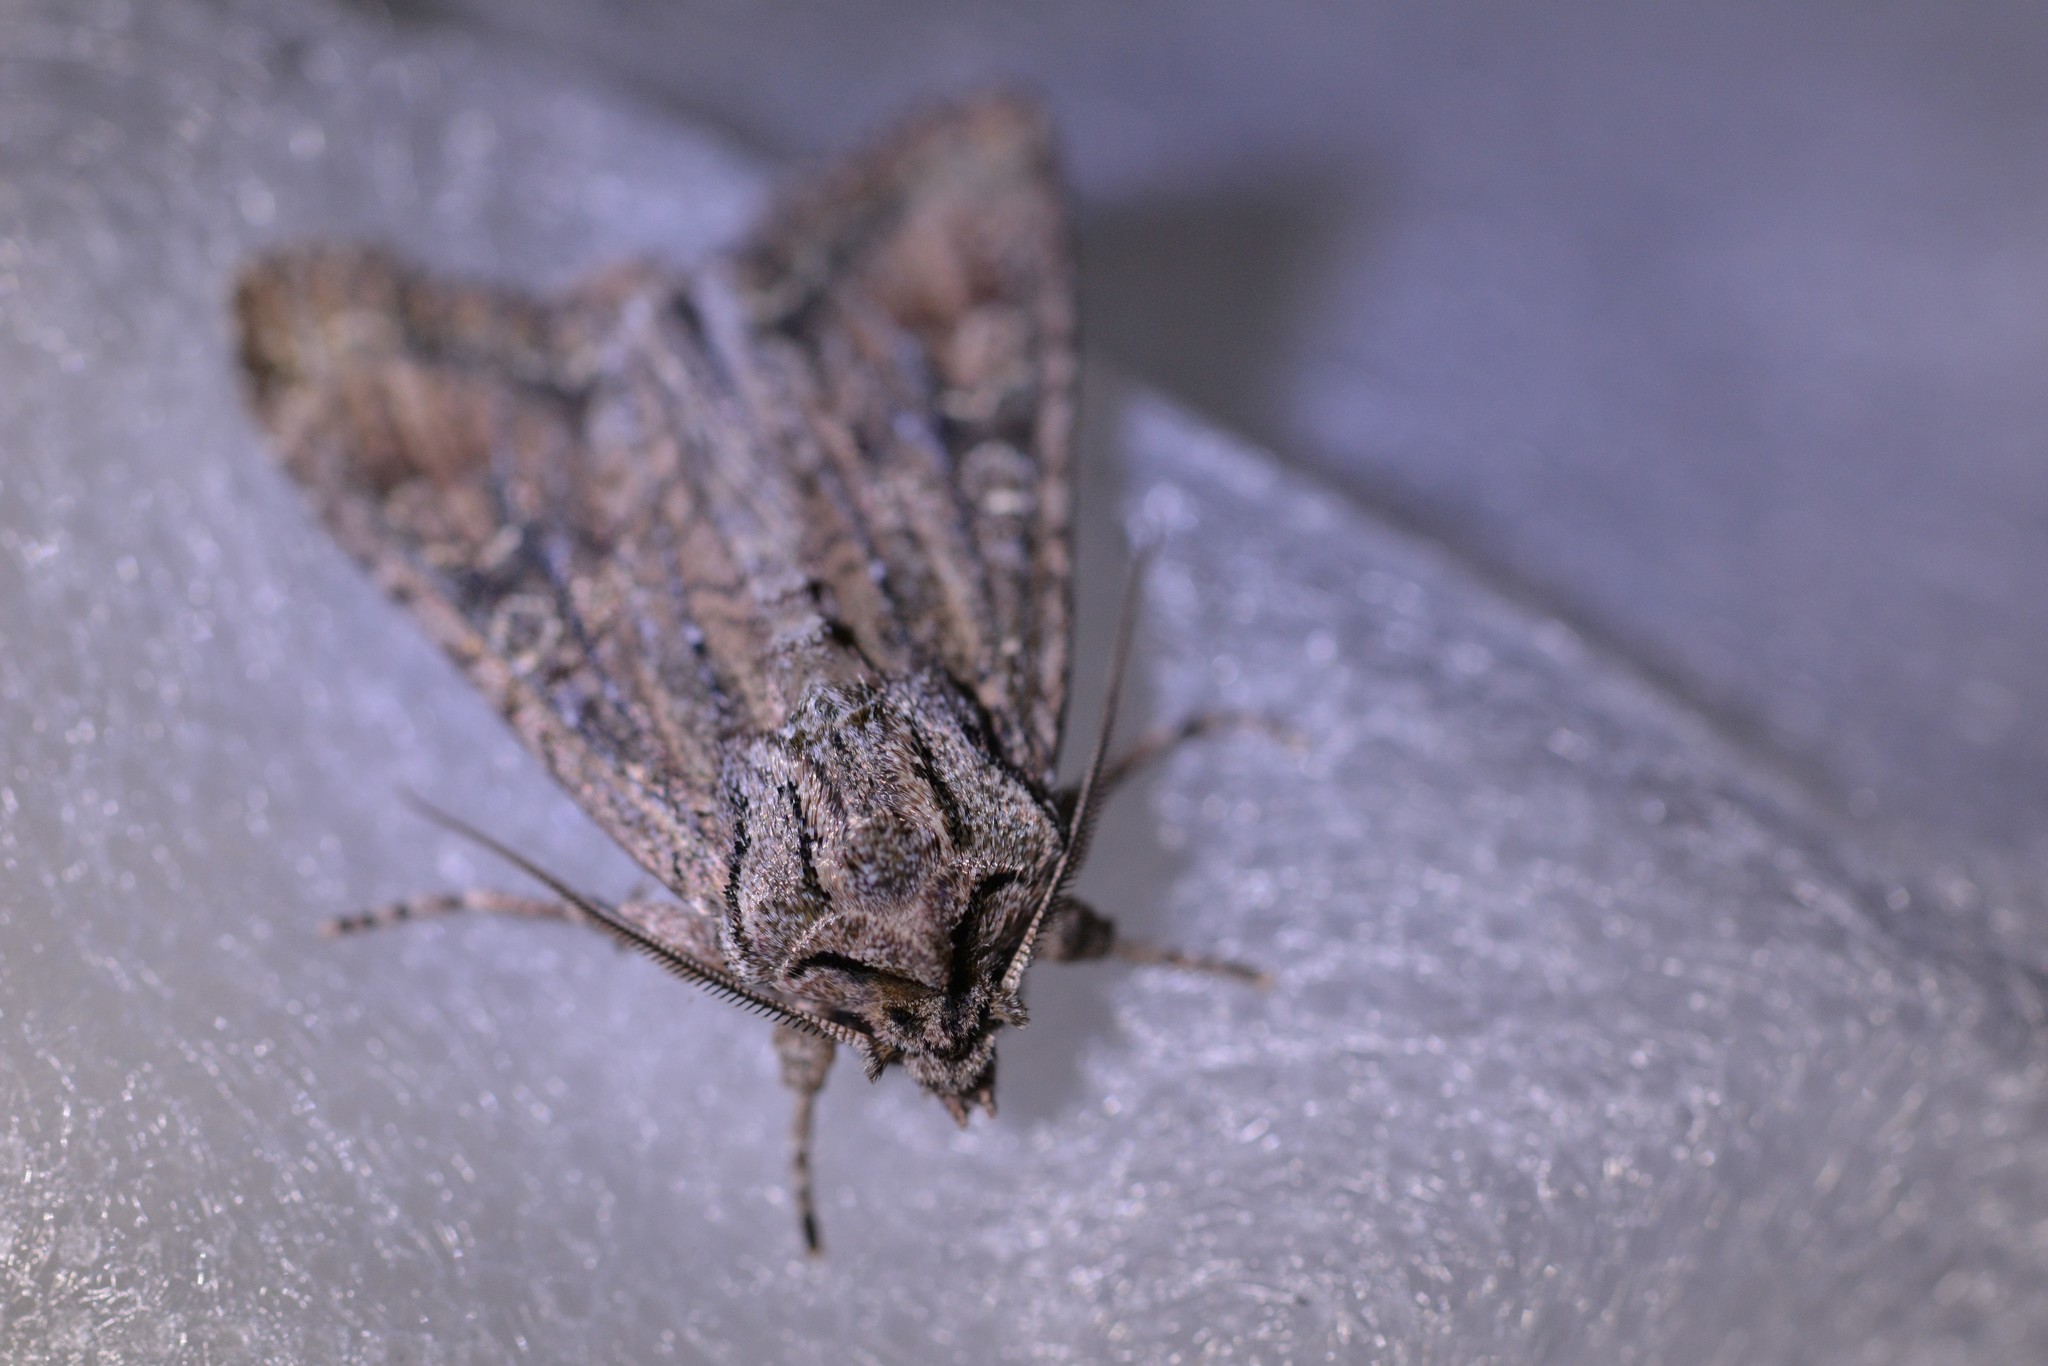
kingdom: Animalia
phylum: Arthropoda
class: Insecta
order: Lepidoptera
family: Noctuidae
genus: Ichneutica
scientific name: Ichneutica mutans
